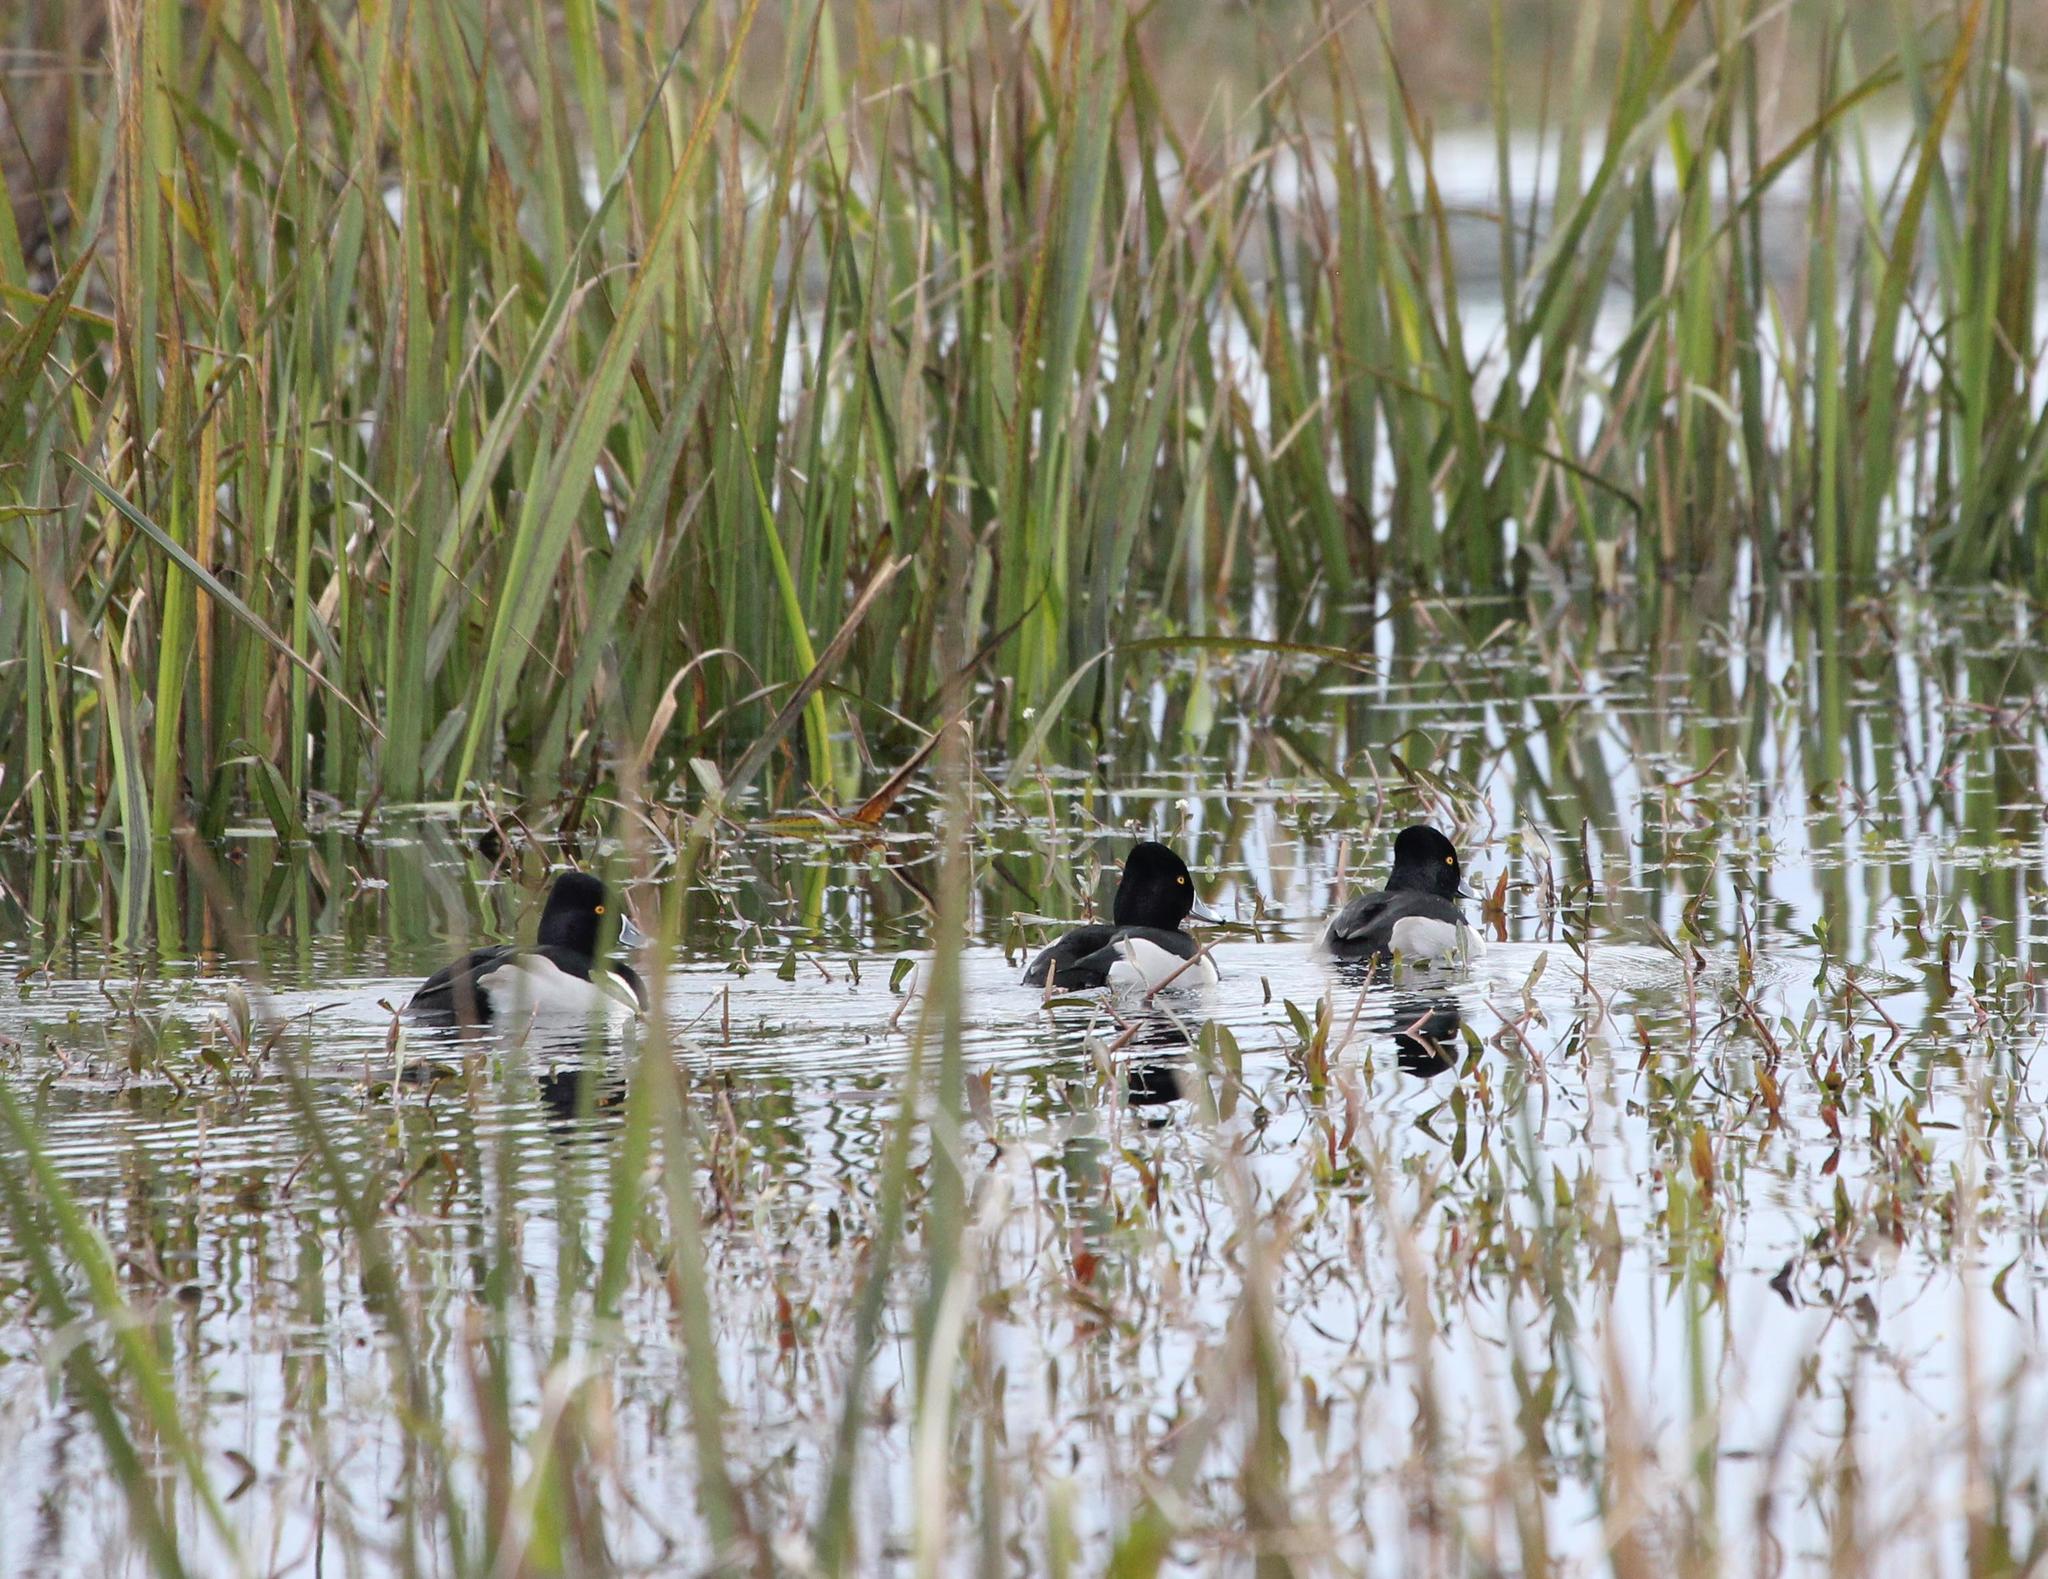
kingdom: Animalia
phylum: Chordata
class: Aves
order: Anseriformes
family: Anatidae
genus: Aythya
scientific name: Aythya collaris
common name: Ring-necked duck
